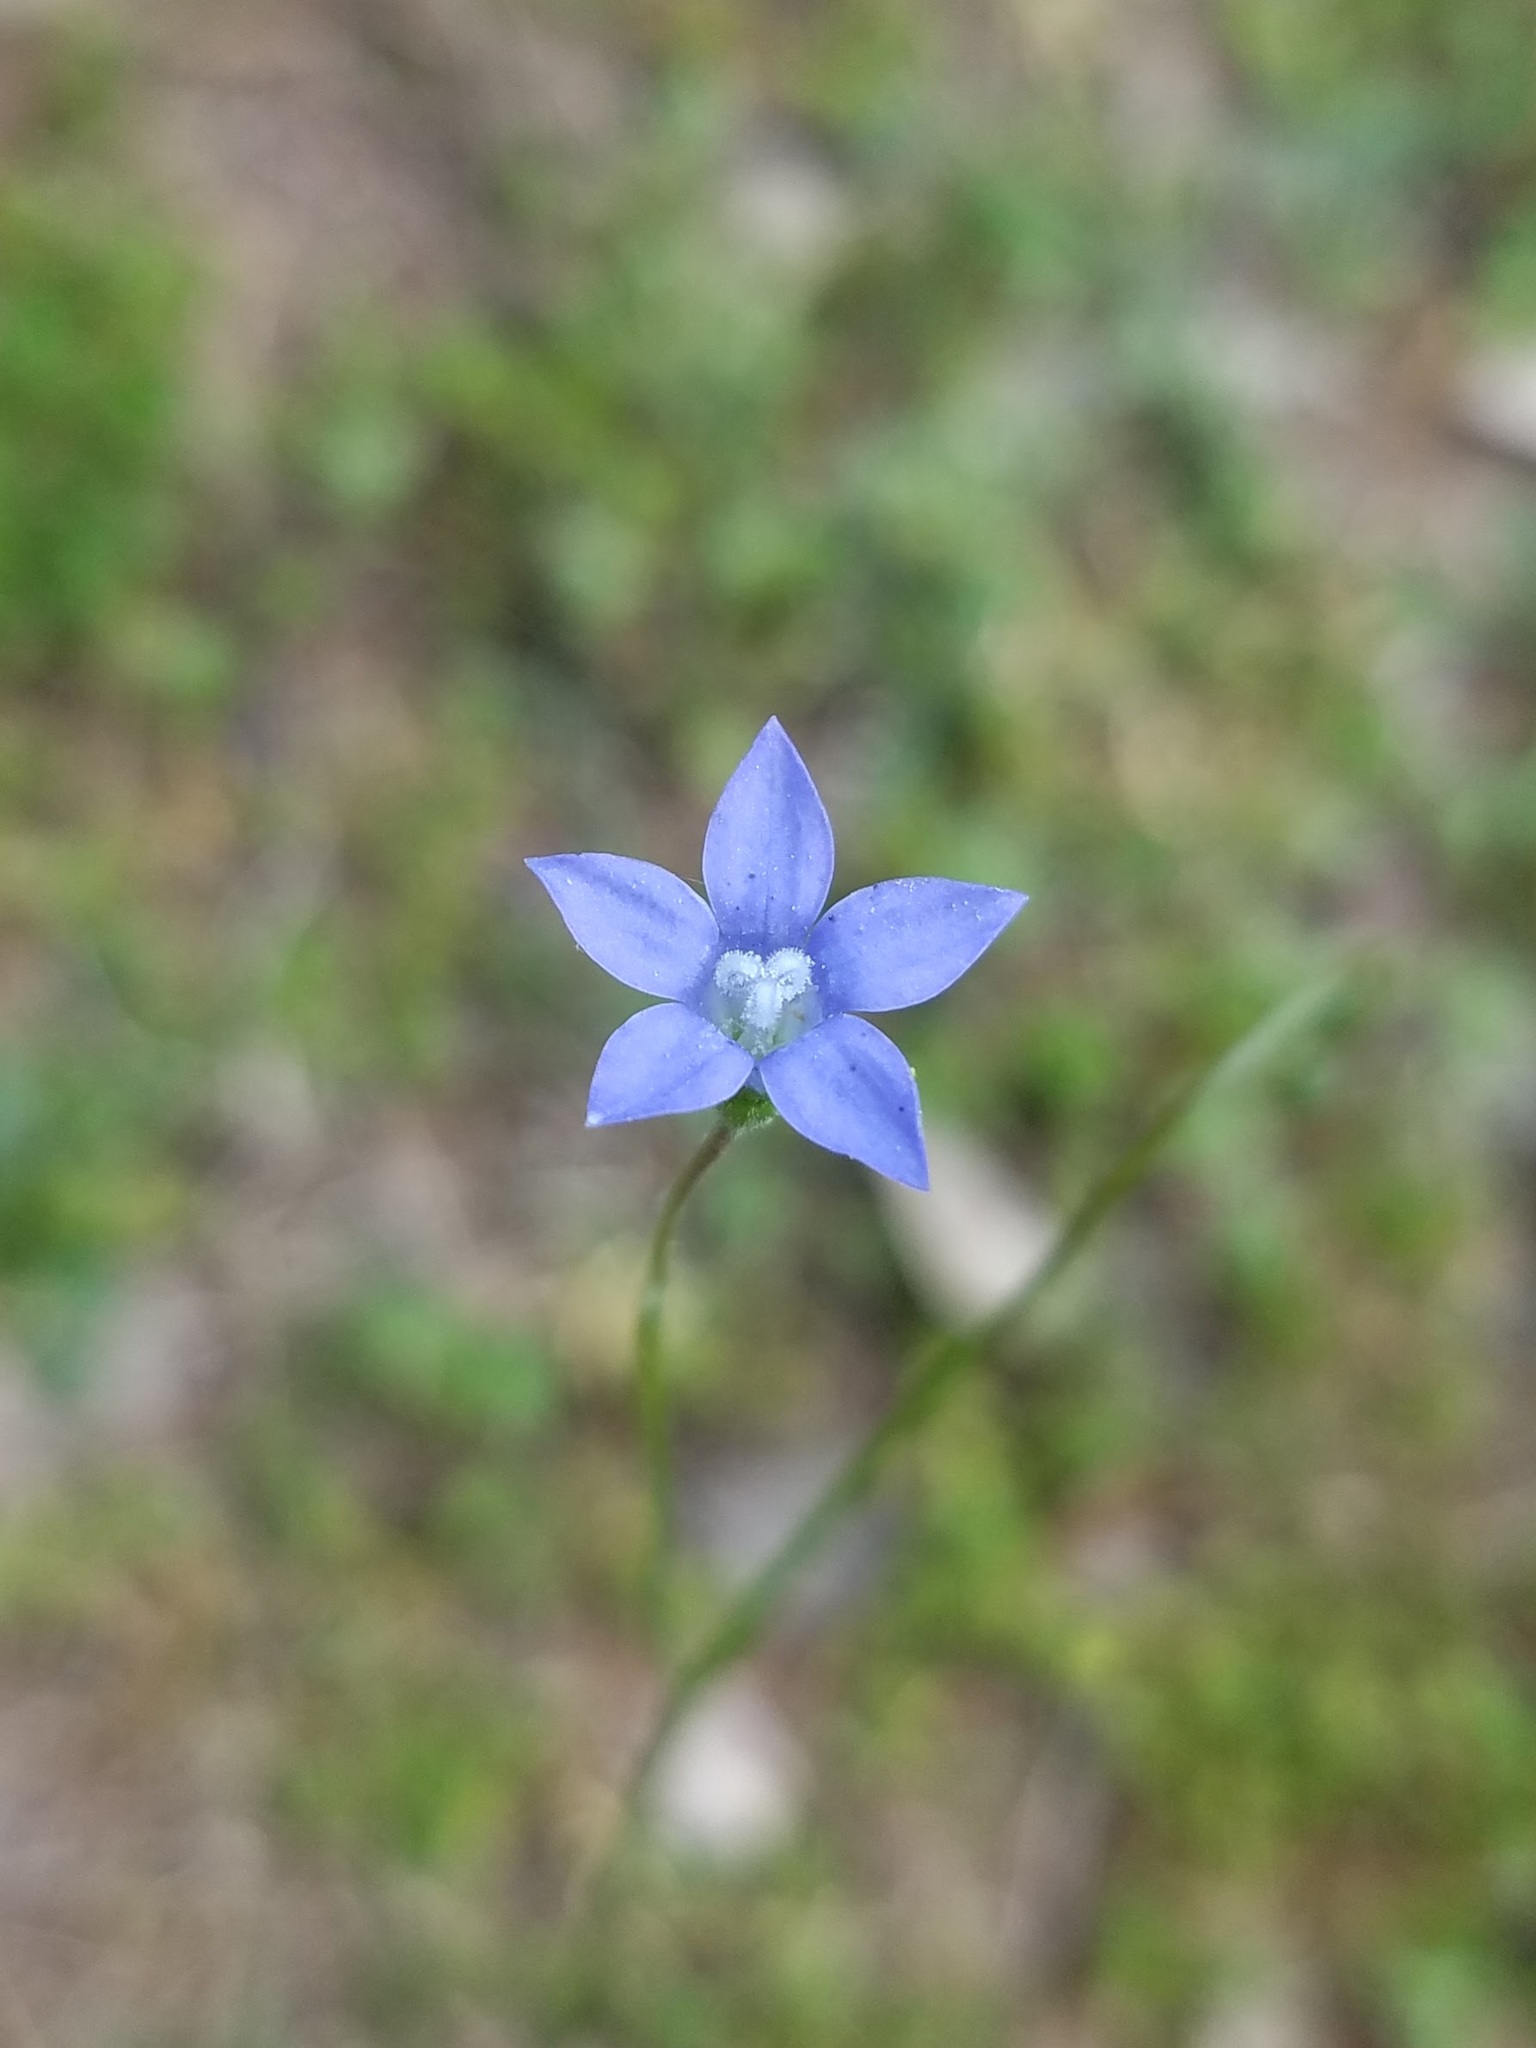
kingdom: Plantae
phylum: Tracheophyta
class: Magnoliopsida
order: Asterales
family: Campanulaceae
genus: Wahlenbergia
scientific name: Wahlenbergia marginata
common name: Southern rockbell
